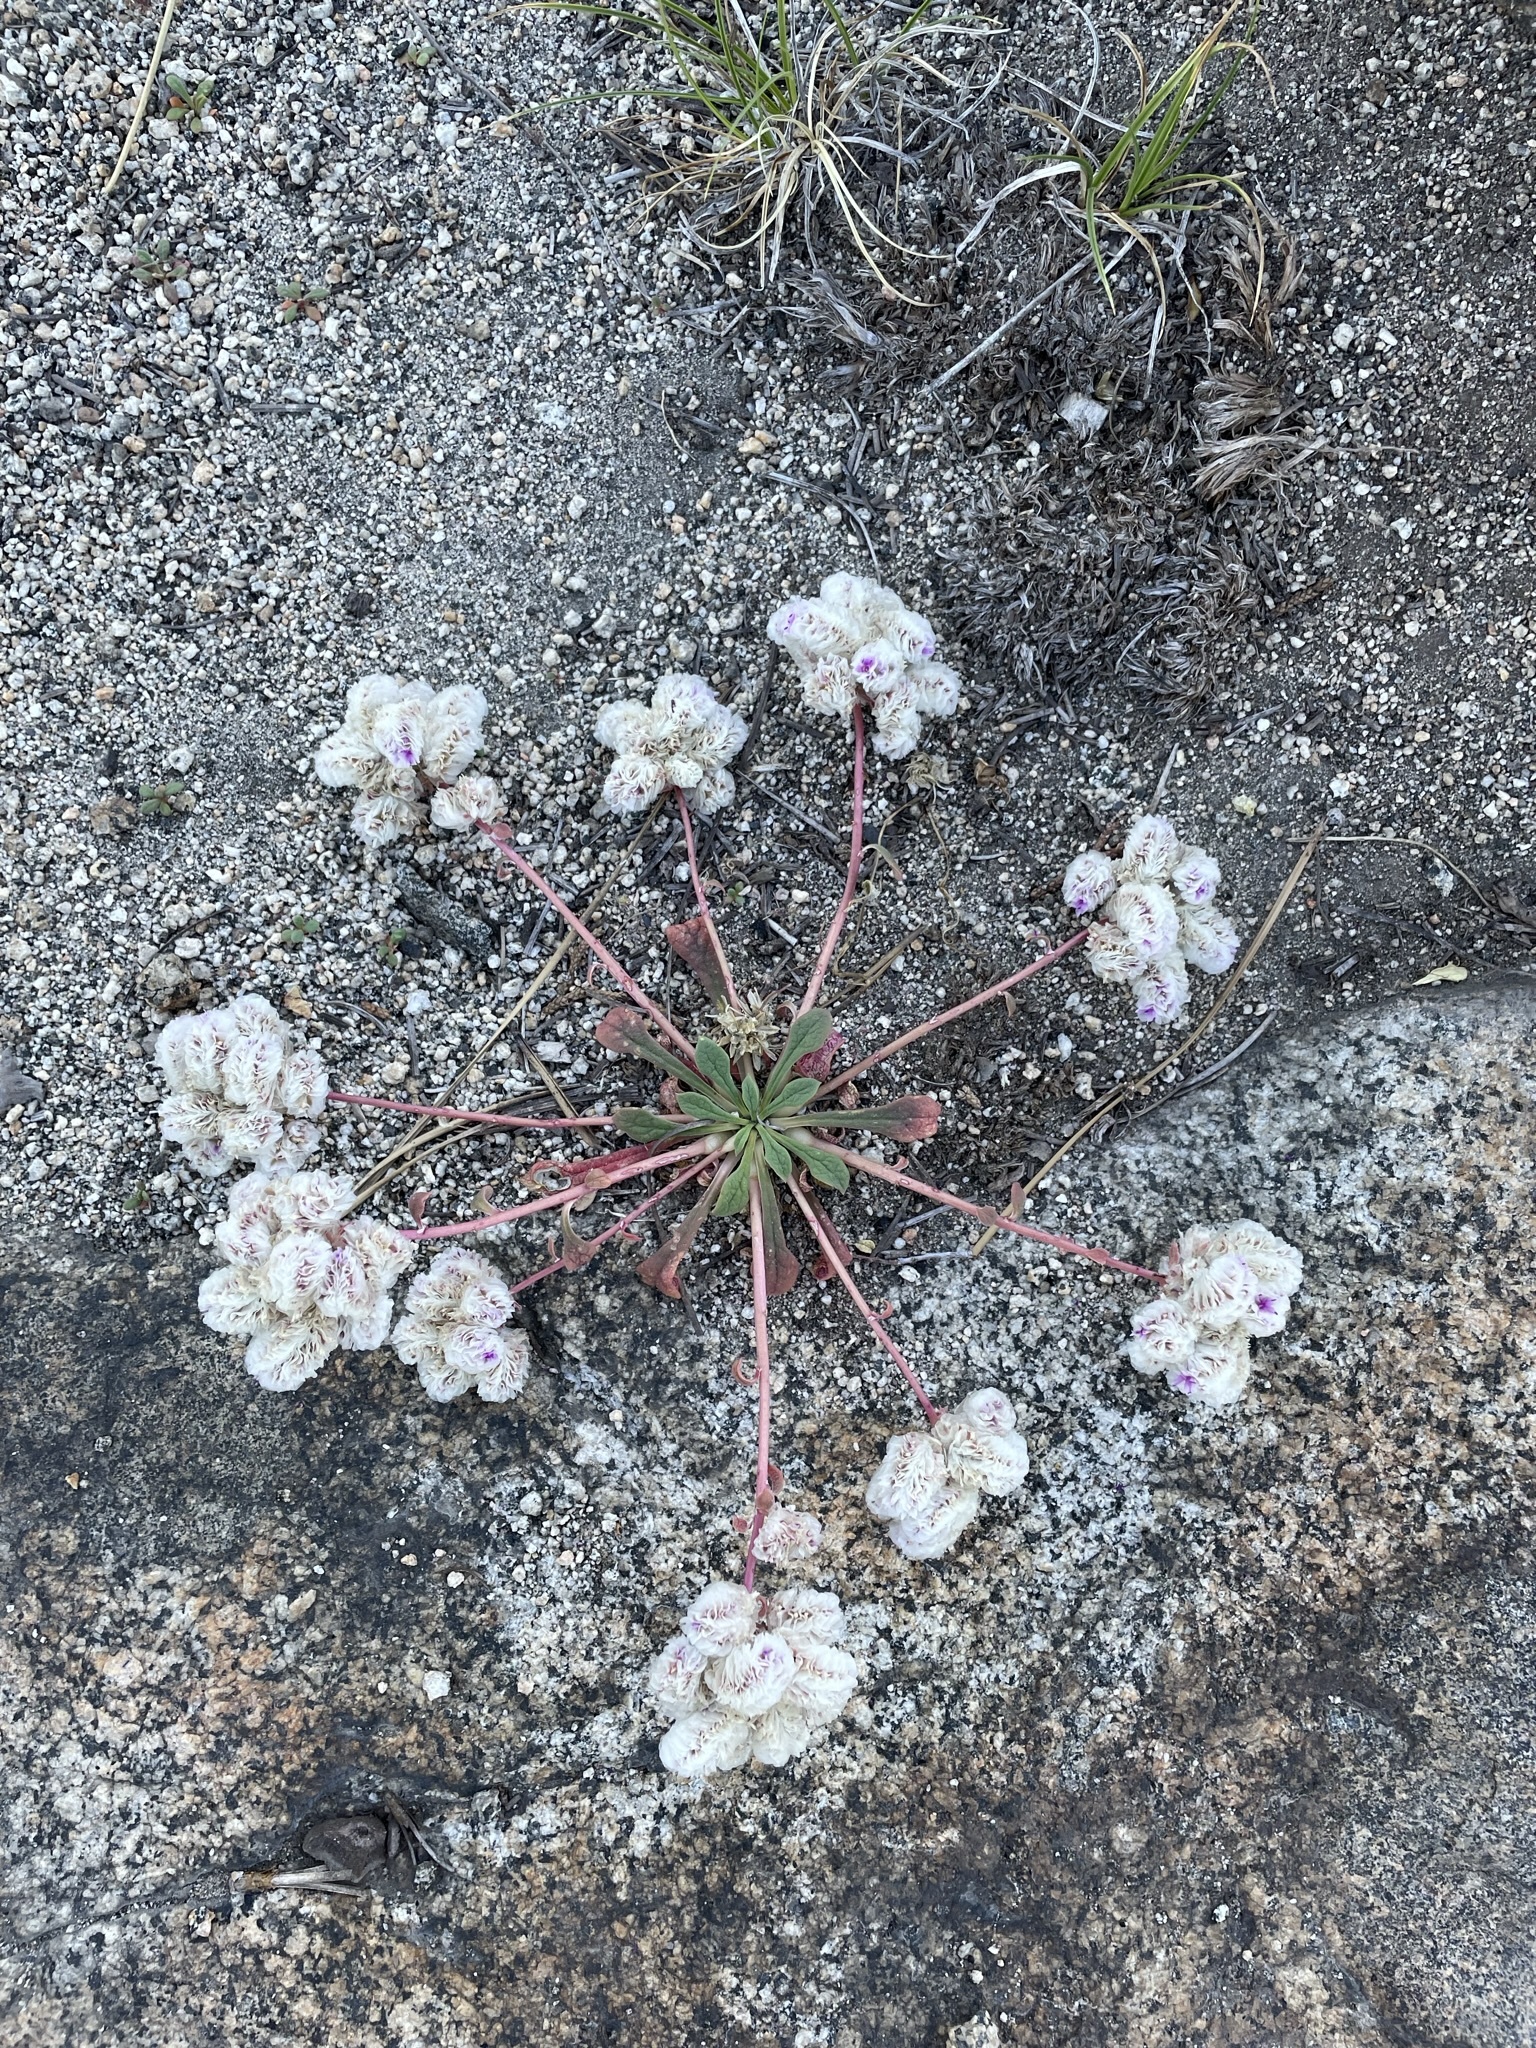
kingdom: Plantae
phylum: Tracheophyta
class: Magnoliopsida
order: Caryophyllales
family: Montiaceae
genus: Calyptridium
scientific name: Calyptridium monospermum
